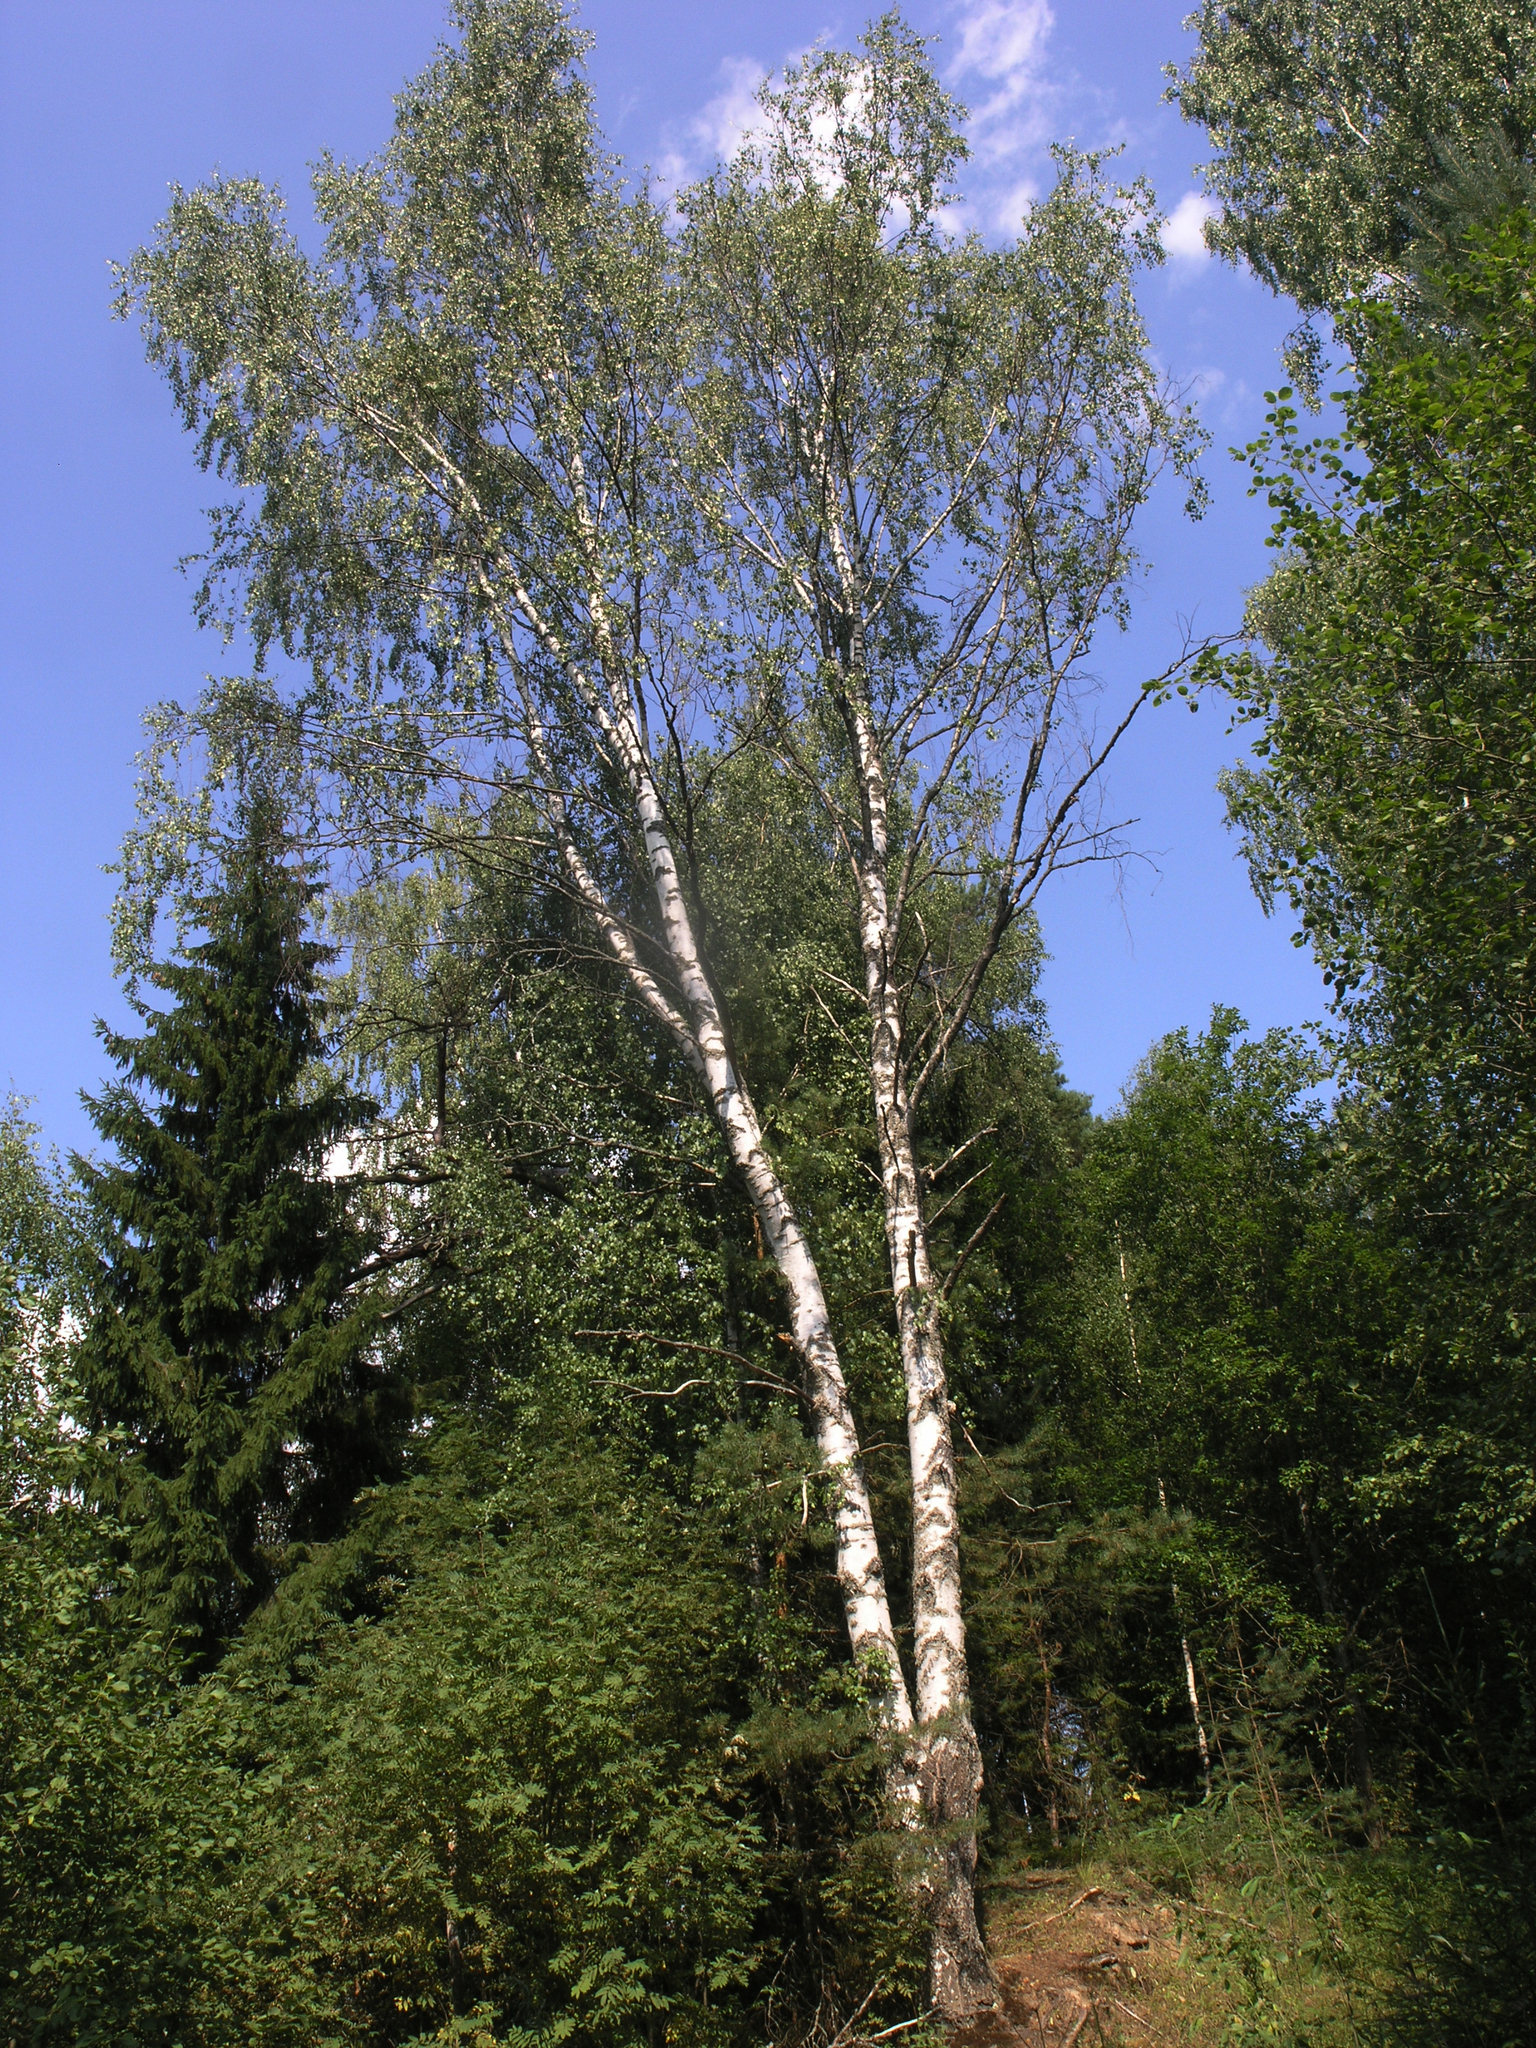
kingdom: Plantae
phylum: Tracheophyta
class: Magnoliopsida
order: Fagales
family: Betulaceae
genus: Betula
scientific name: Betula pendula
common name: Silver birch
